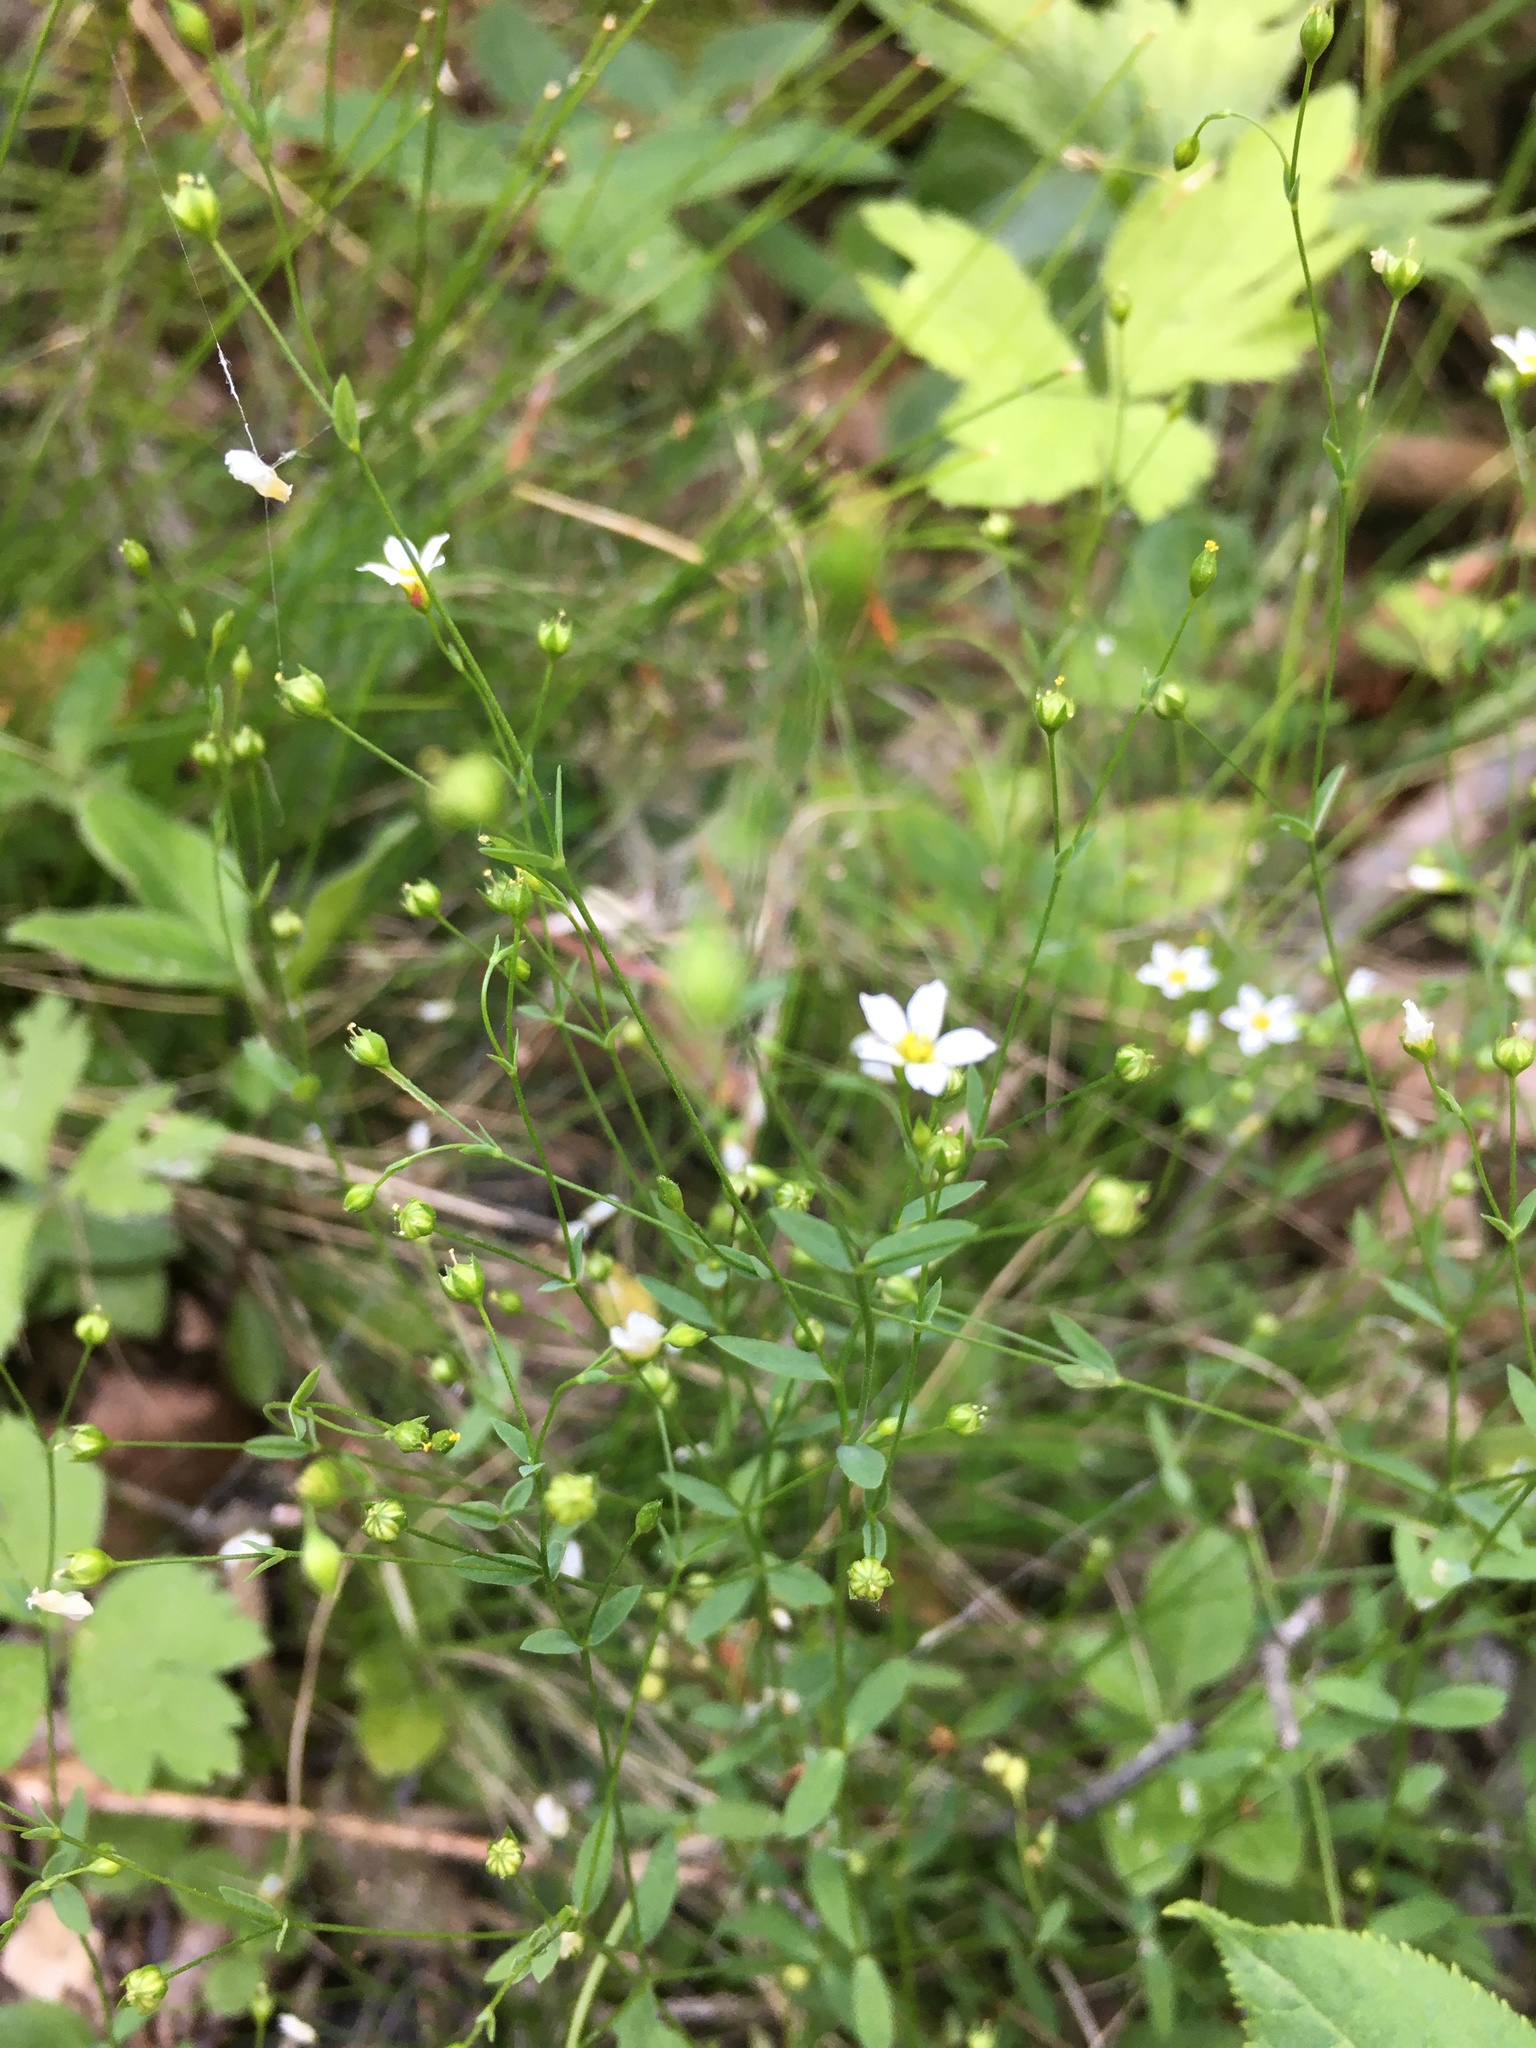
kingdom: Plantae
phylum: Tracheophyta
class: Magnoliopsida
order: Malpighiales
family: Linaceae
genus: Linum
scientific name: Linum catharticum
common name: Fairy flax
